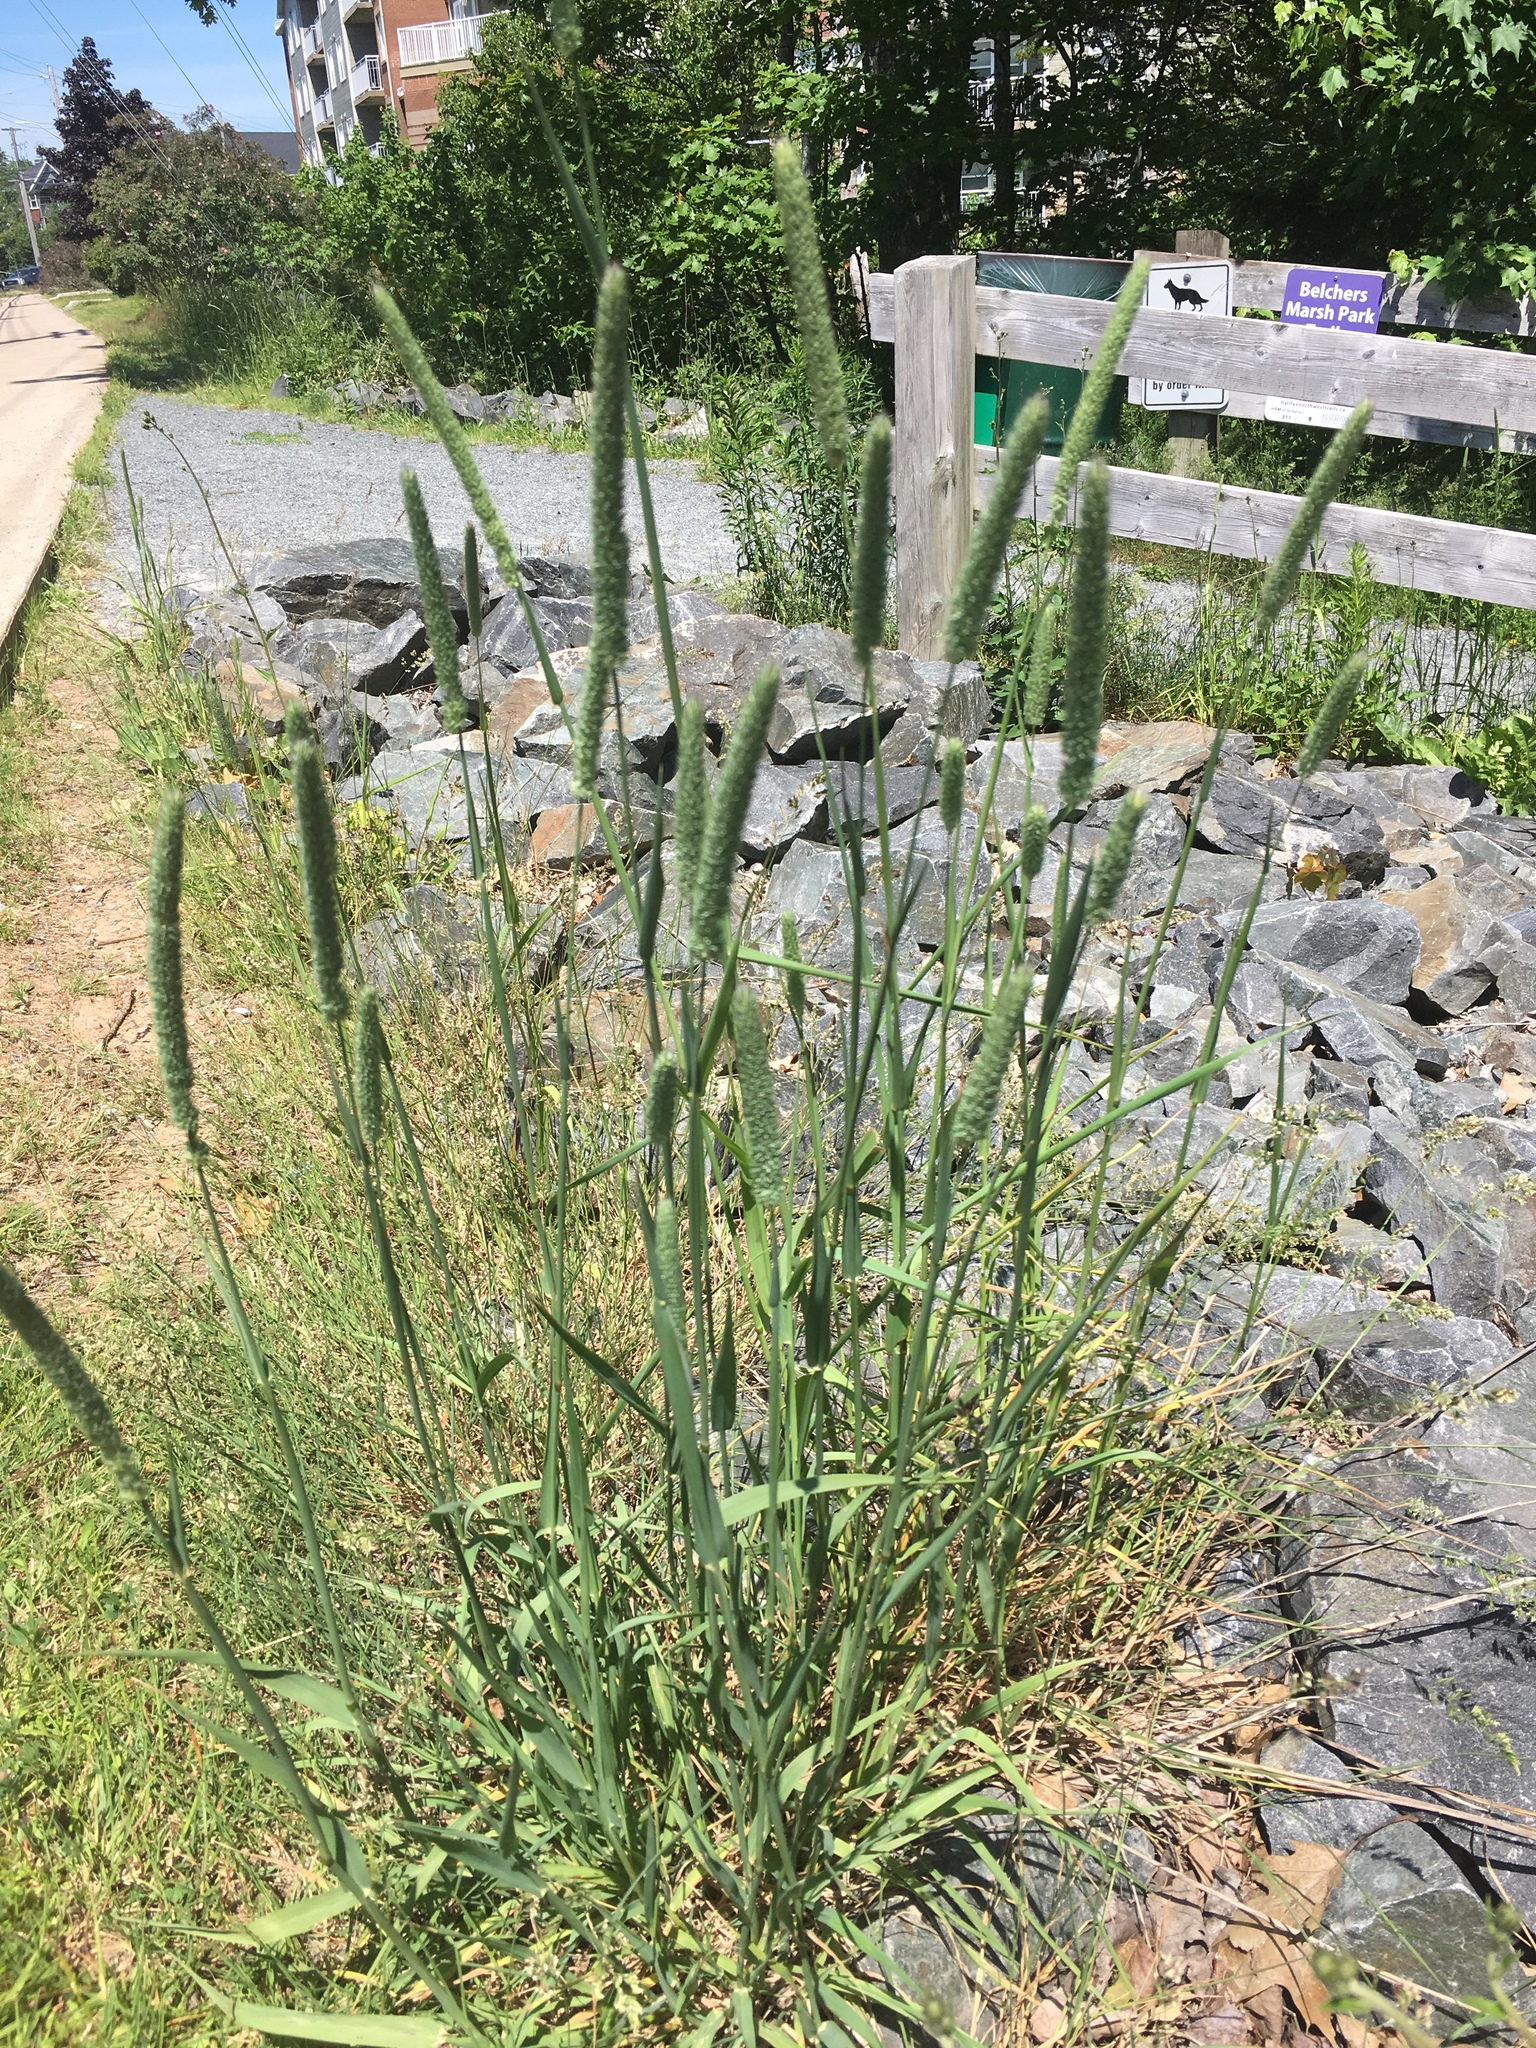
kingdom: Plantae
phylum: Tracheophyta
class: Liliopsida
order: Poales
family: Poaceae
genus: Phleum
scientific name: Phleum pratense
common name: Timothy grass
